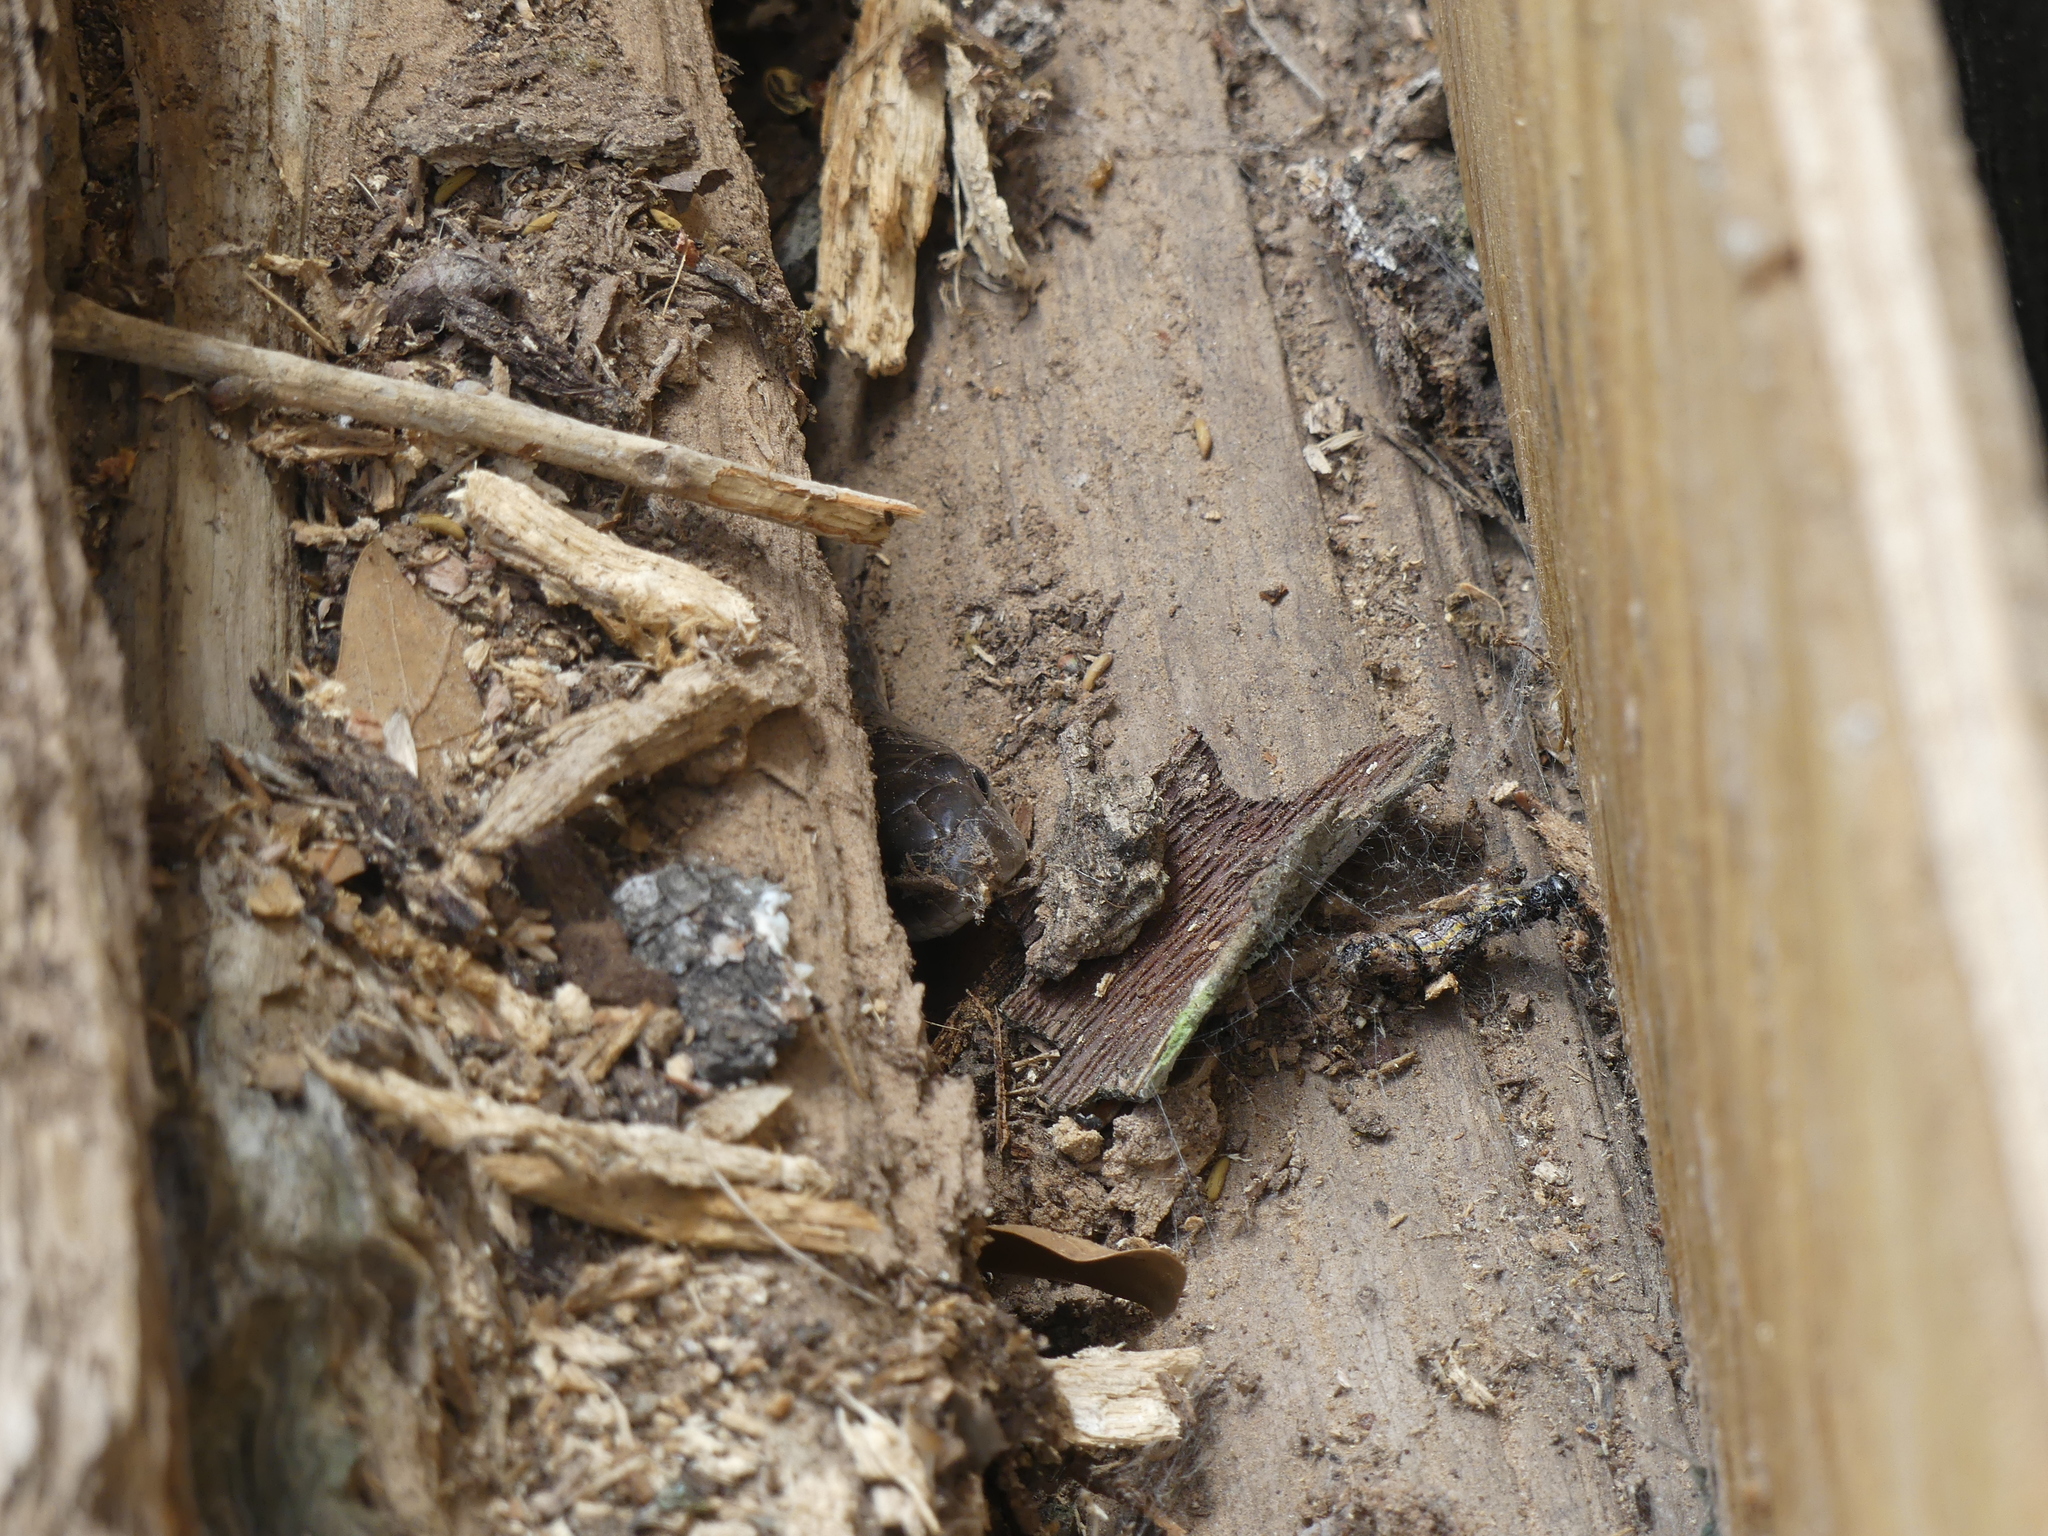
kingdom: Animalia
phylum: Chordata
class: Squamata
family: Colubridae
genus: Pantherophis
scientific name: Pantherophis obsoletus
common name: Black rat snake
